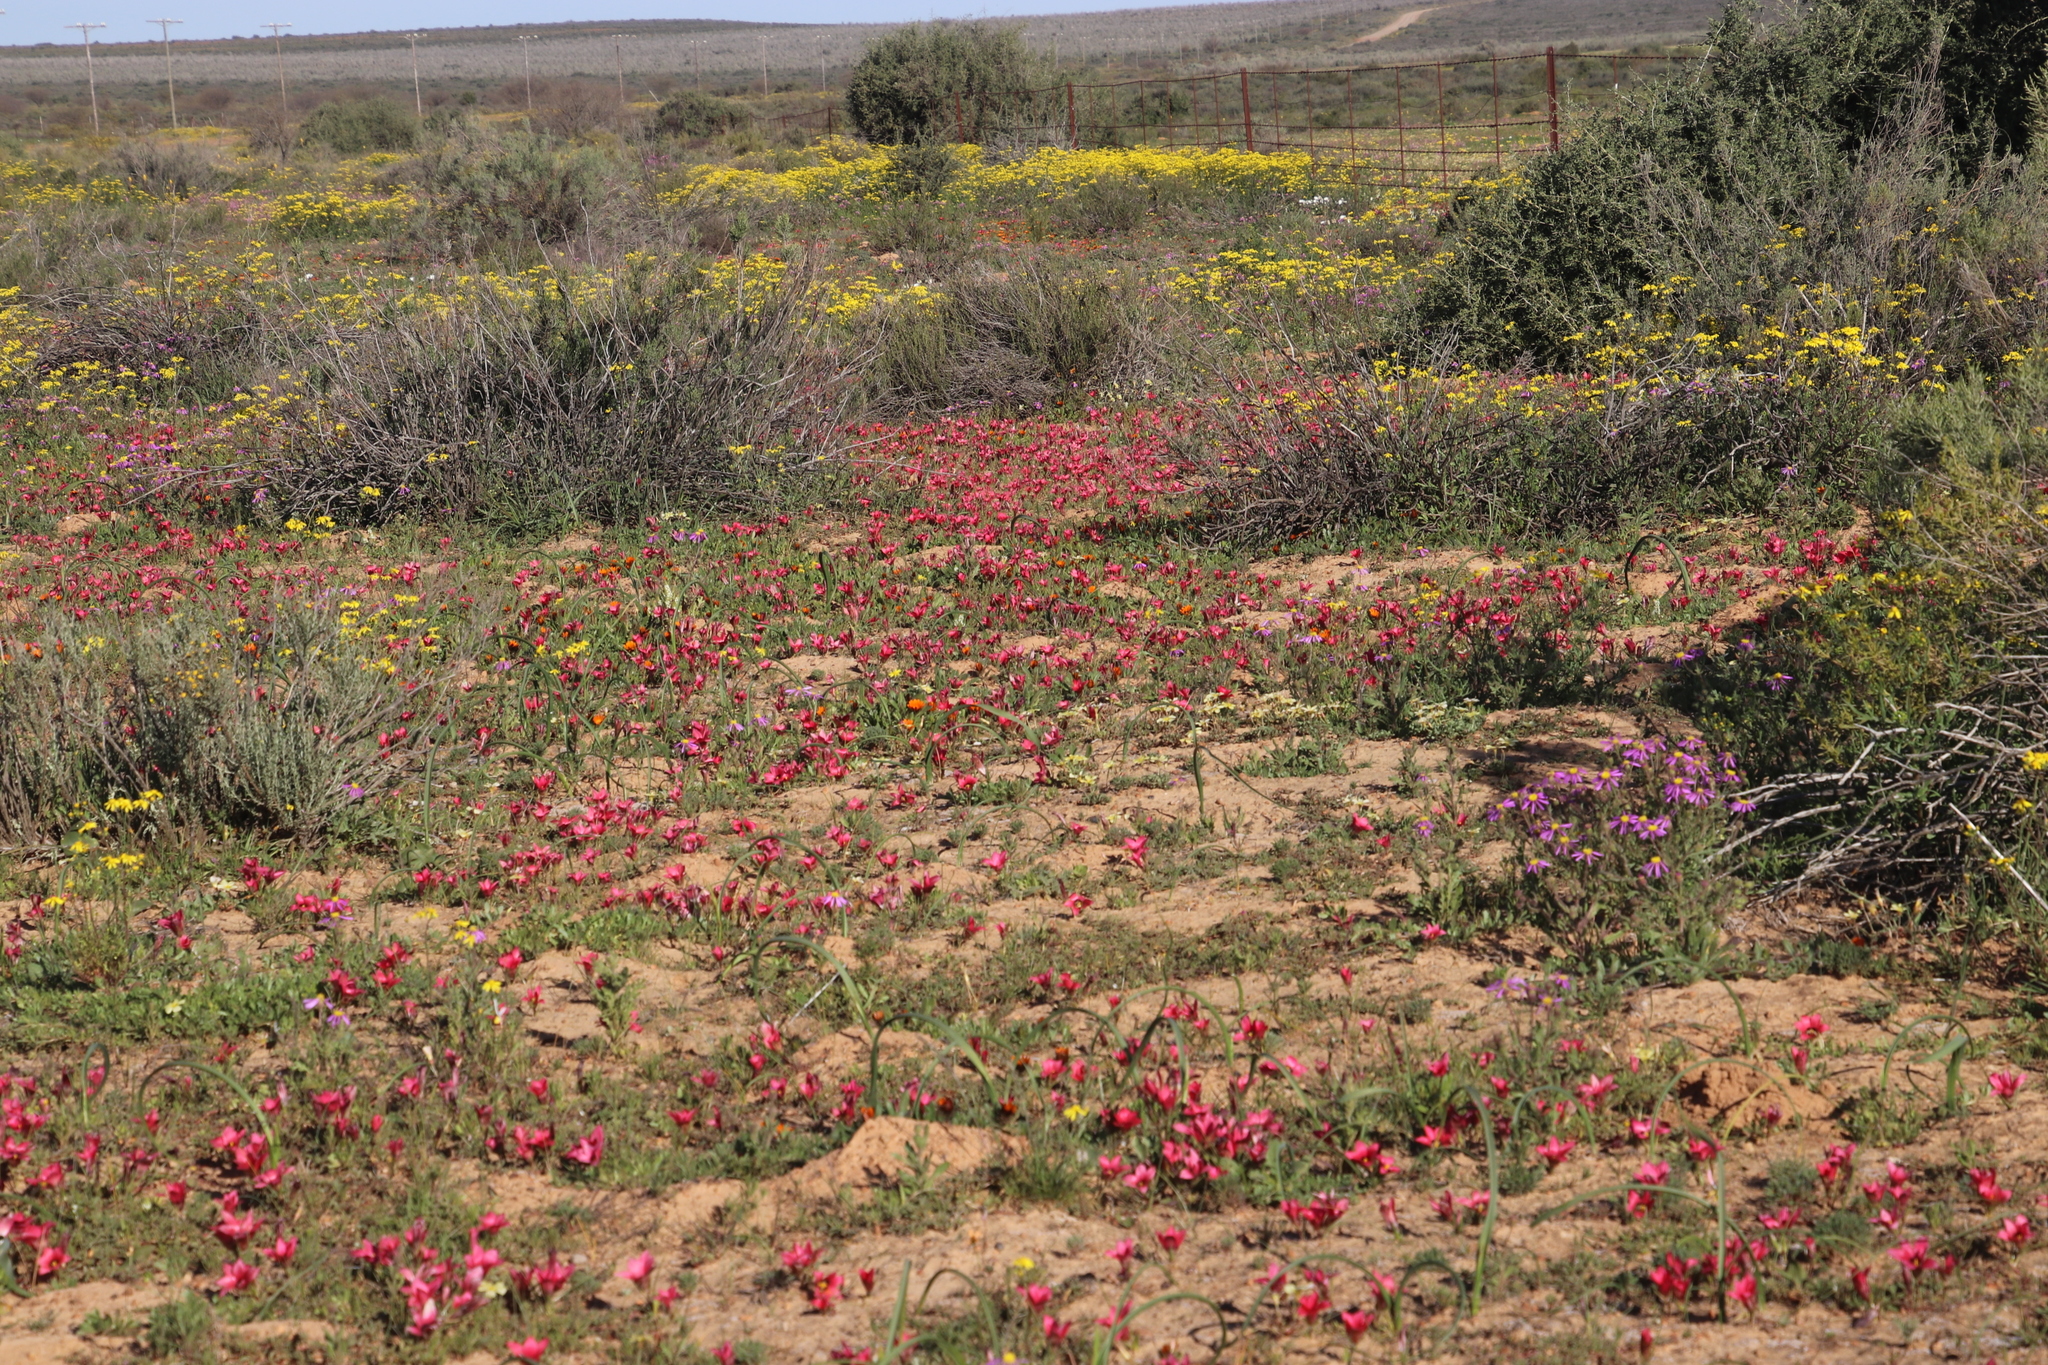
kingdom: Plantae
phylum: Tracheophyta
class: Liliopsida
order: Asparagales
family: Iridaceae
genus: Romulea
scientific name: Romulea pudica
